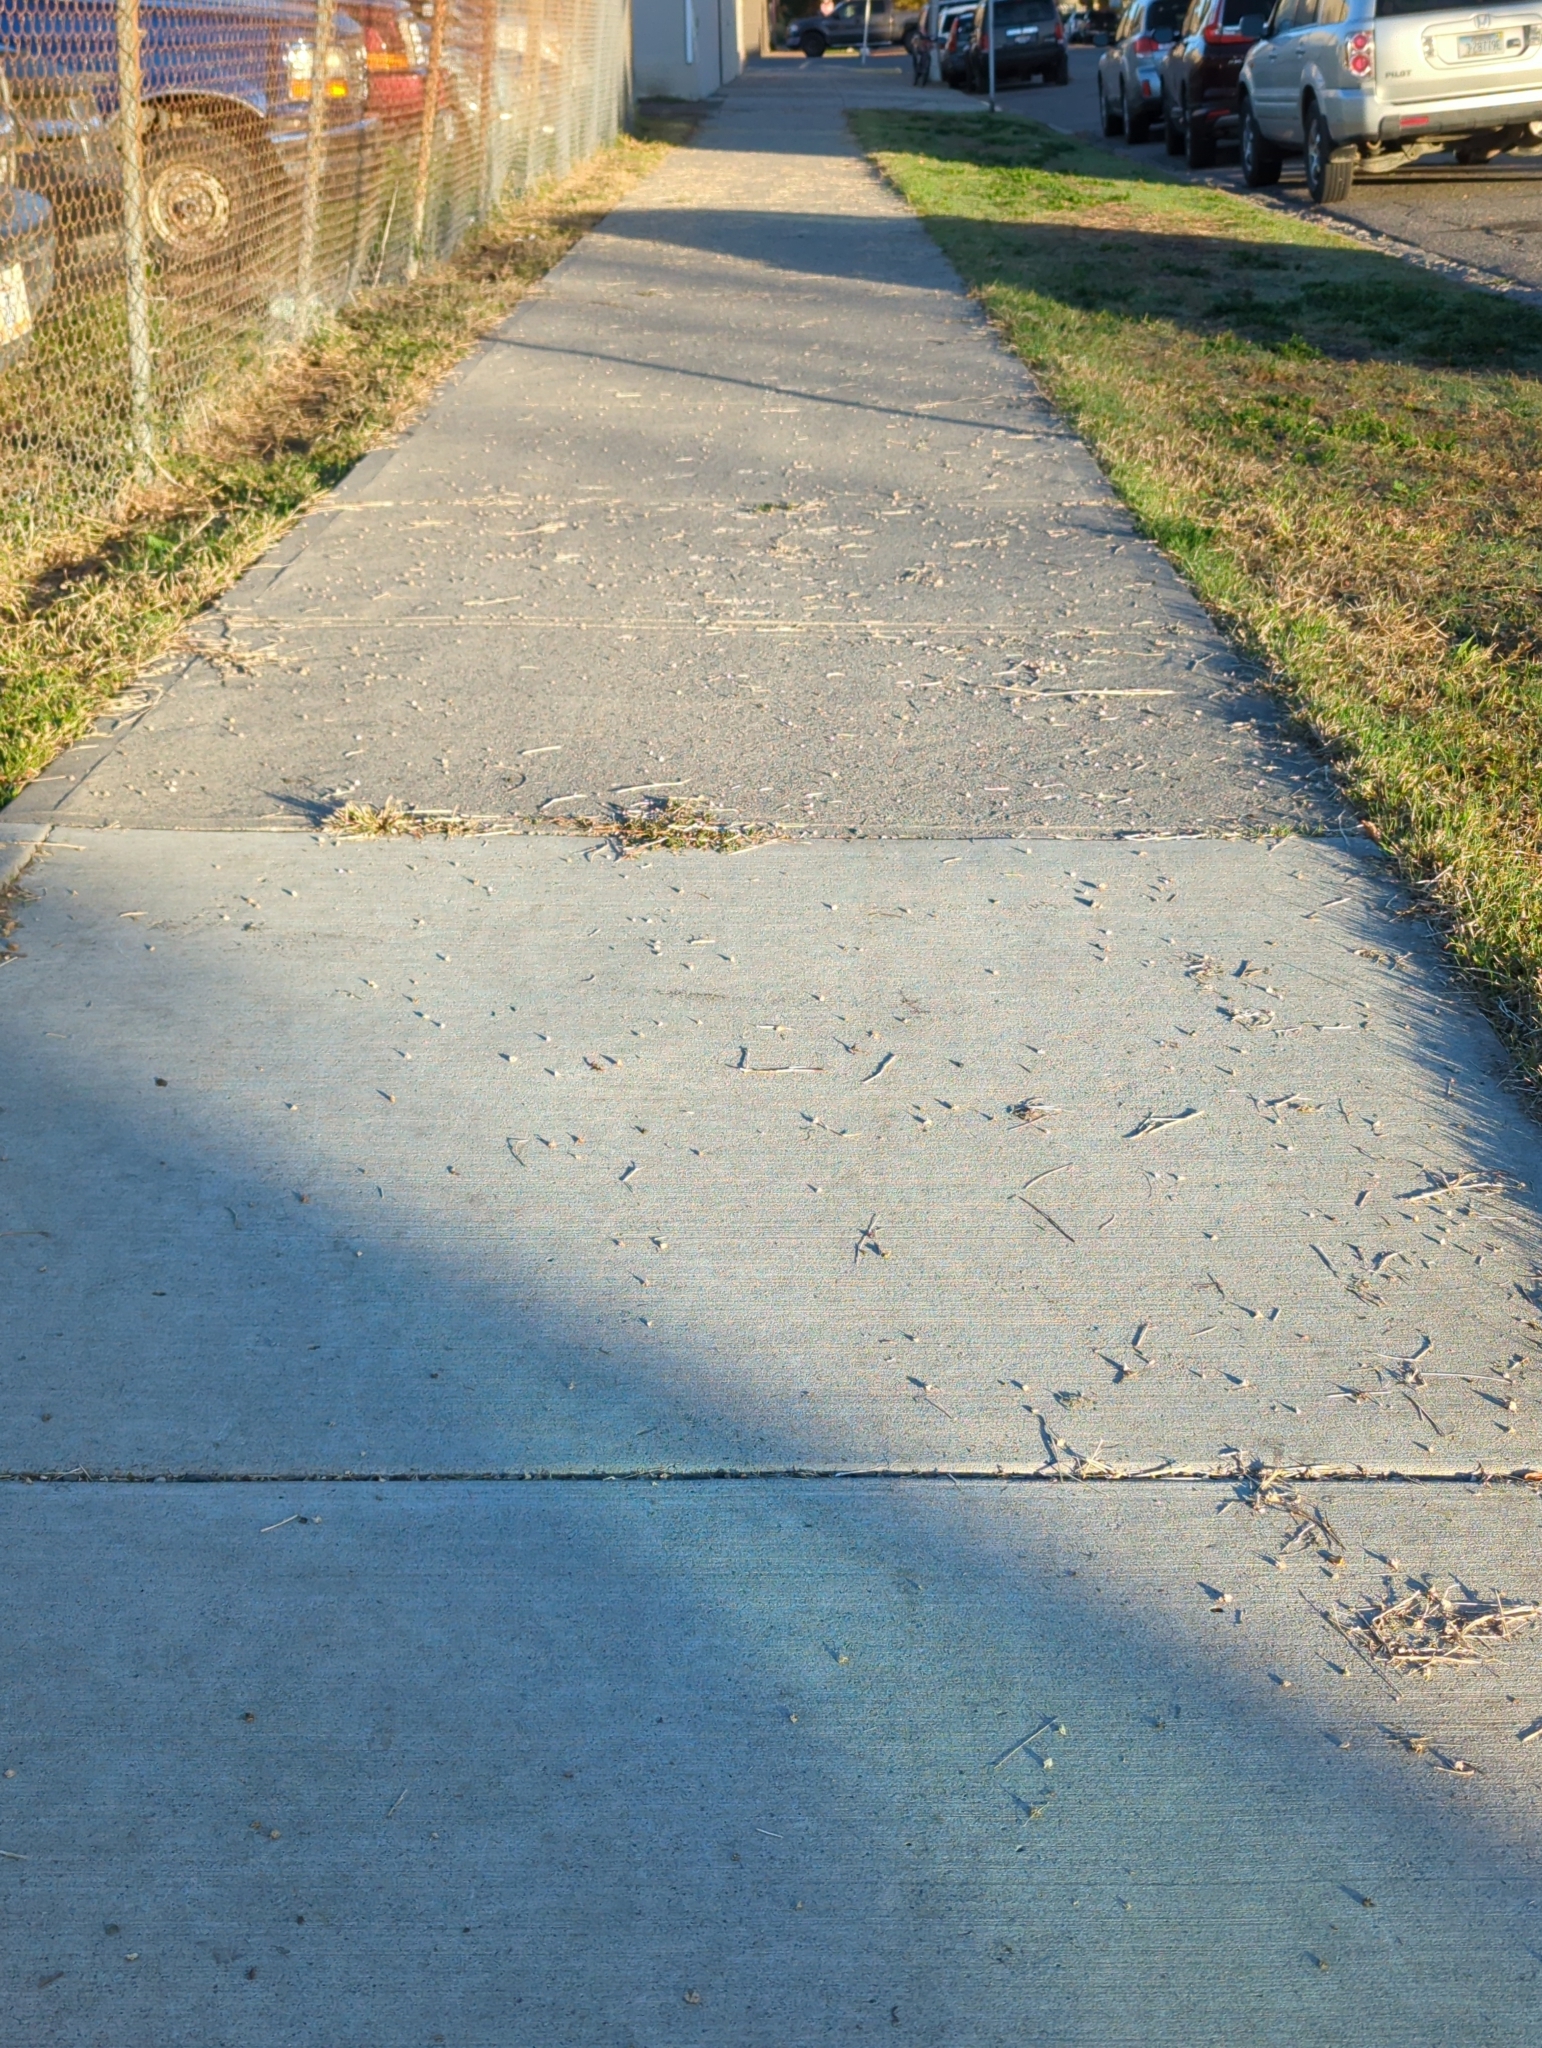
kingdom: Plantae
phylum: Tracheophyta
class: Magnoliopsida
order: Zygophyllales
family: Zygophyllaceae
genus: Tribulus
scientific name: Tribulus terrestris
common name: Puncturevine
